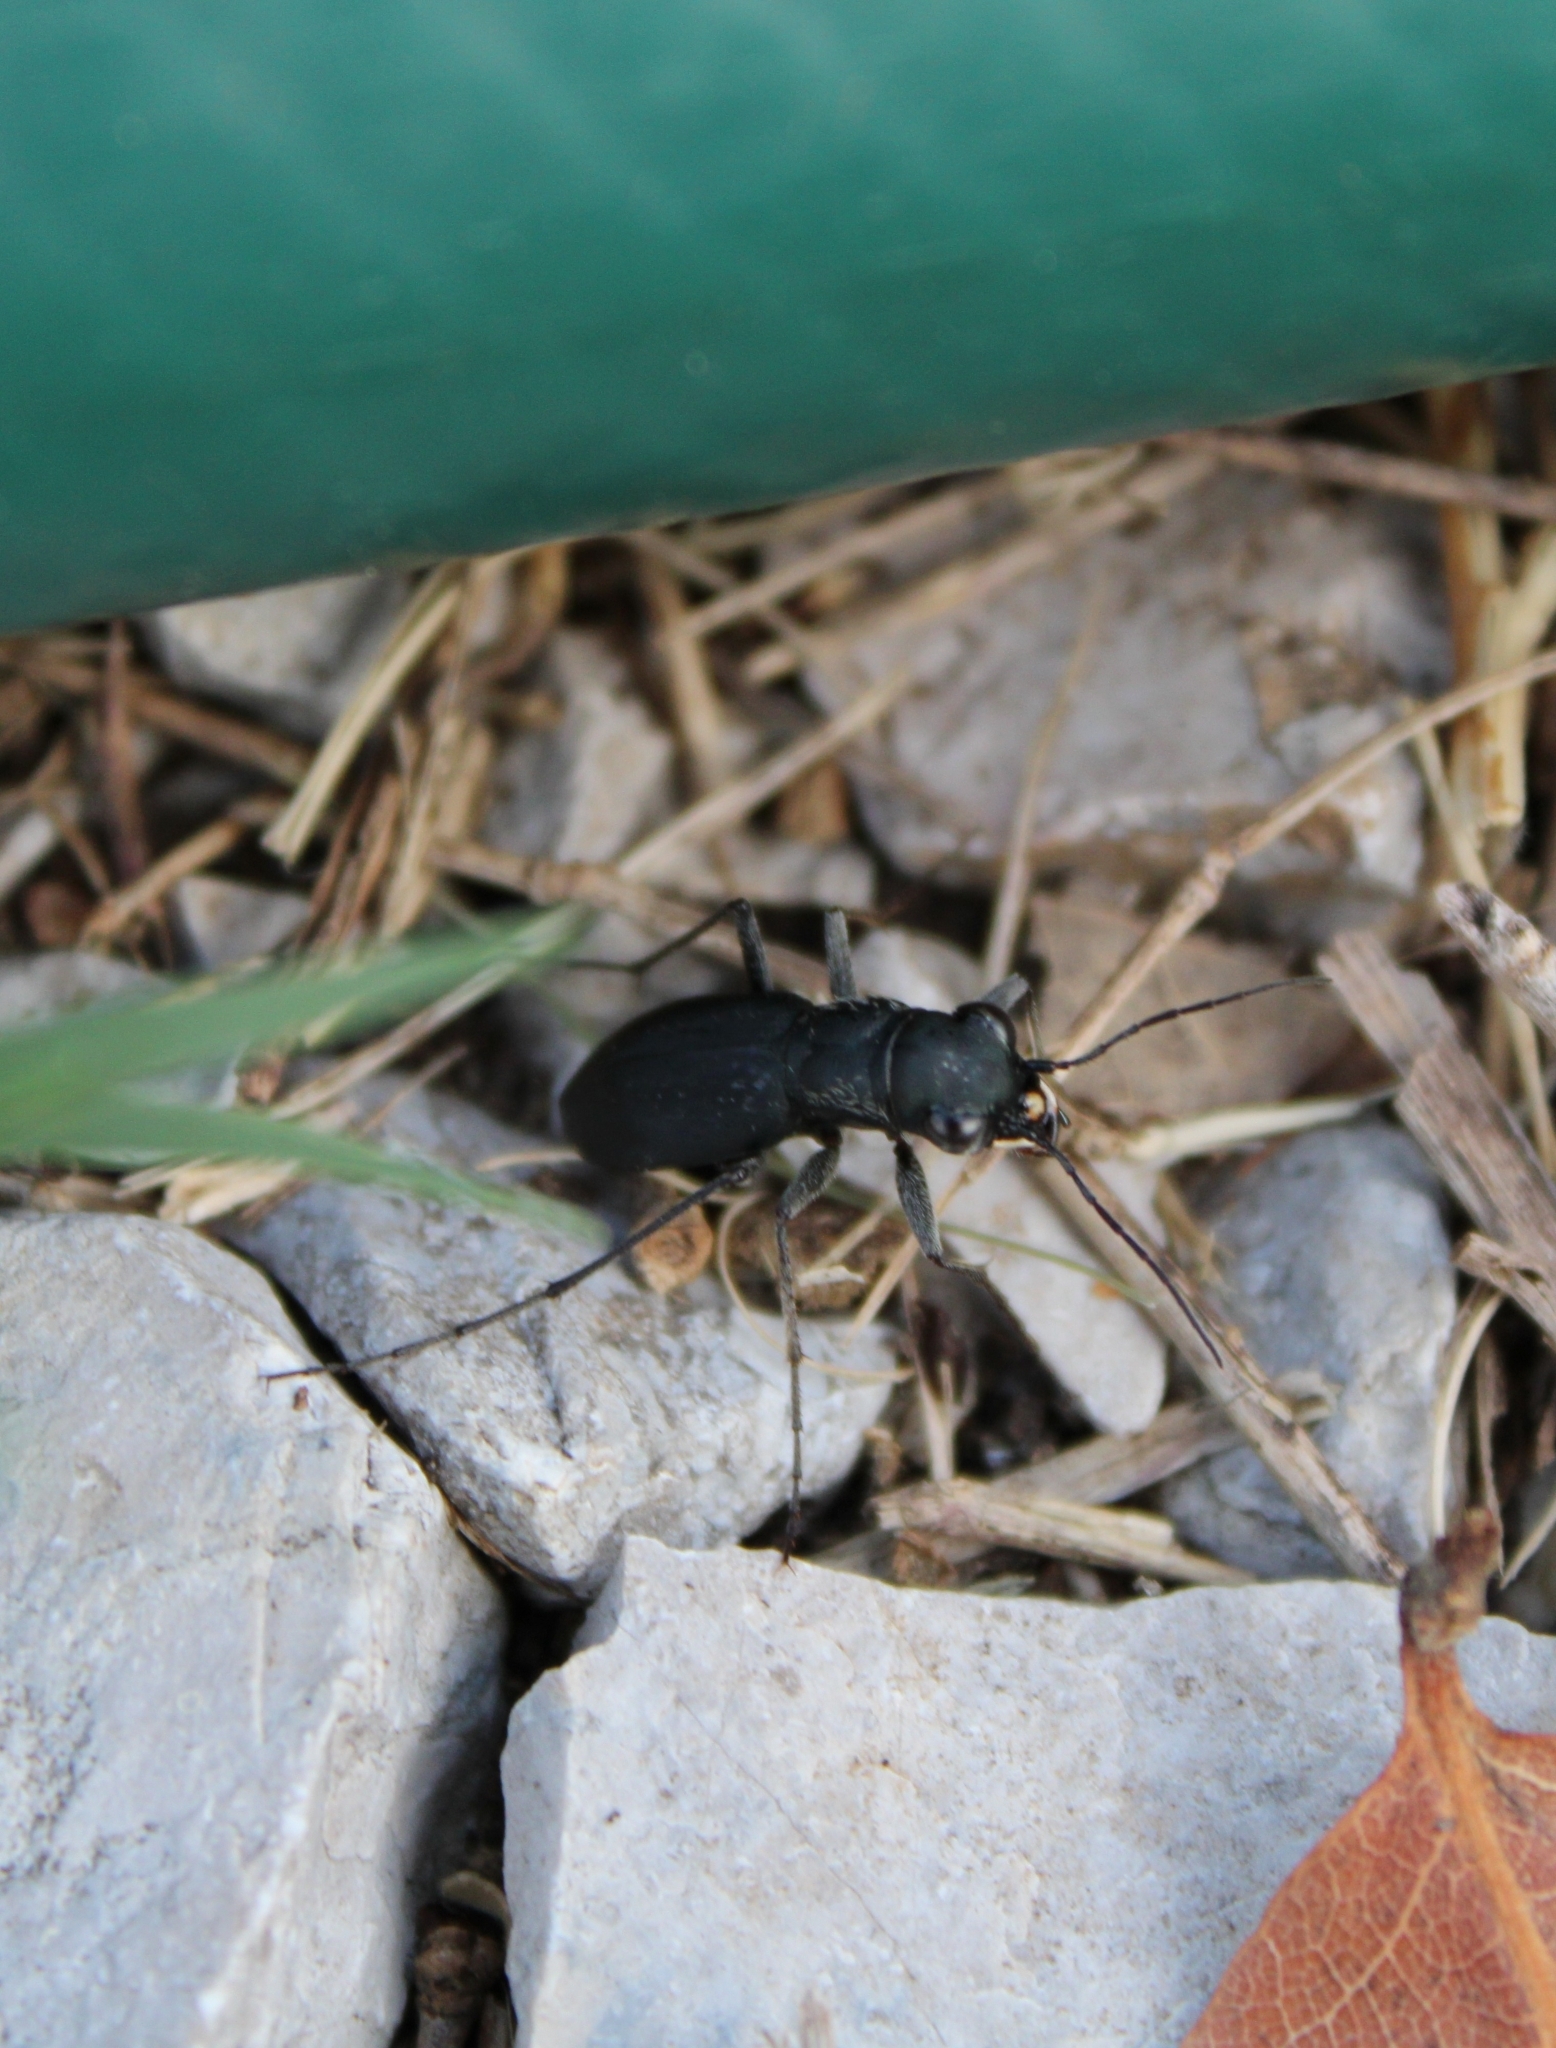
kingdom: Animalia
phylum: Arthropoda
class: Insecta
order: Coleoptera
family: Carabidae
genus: Dromochorus
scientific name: Dromochorus belfragei
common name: Loamy-ground dromo tiger beetle
